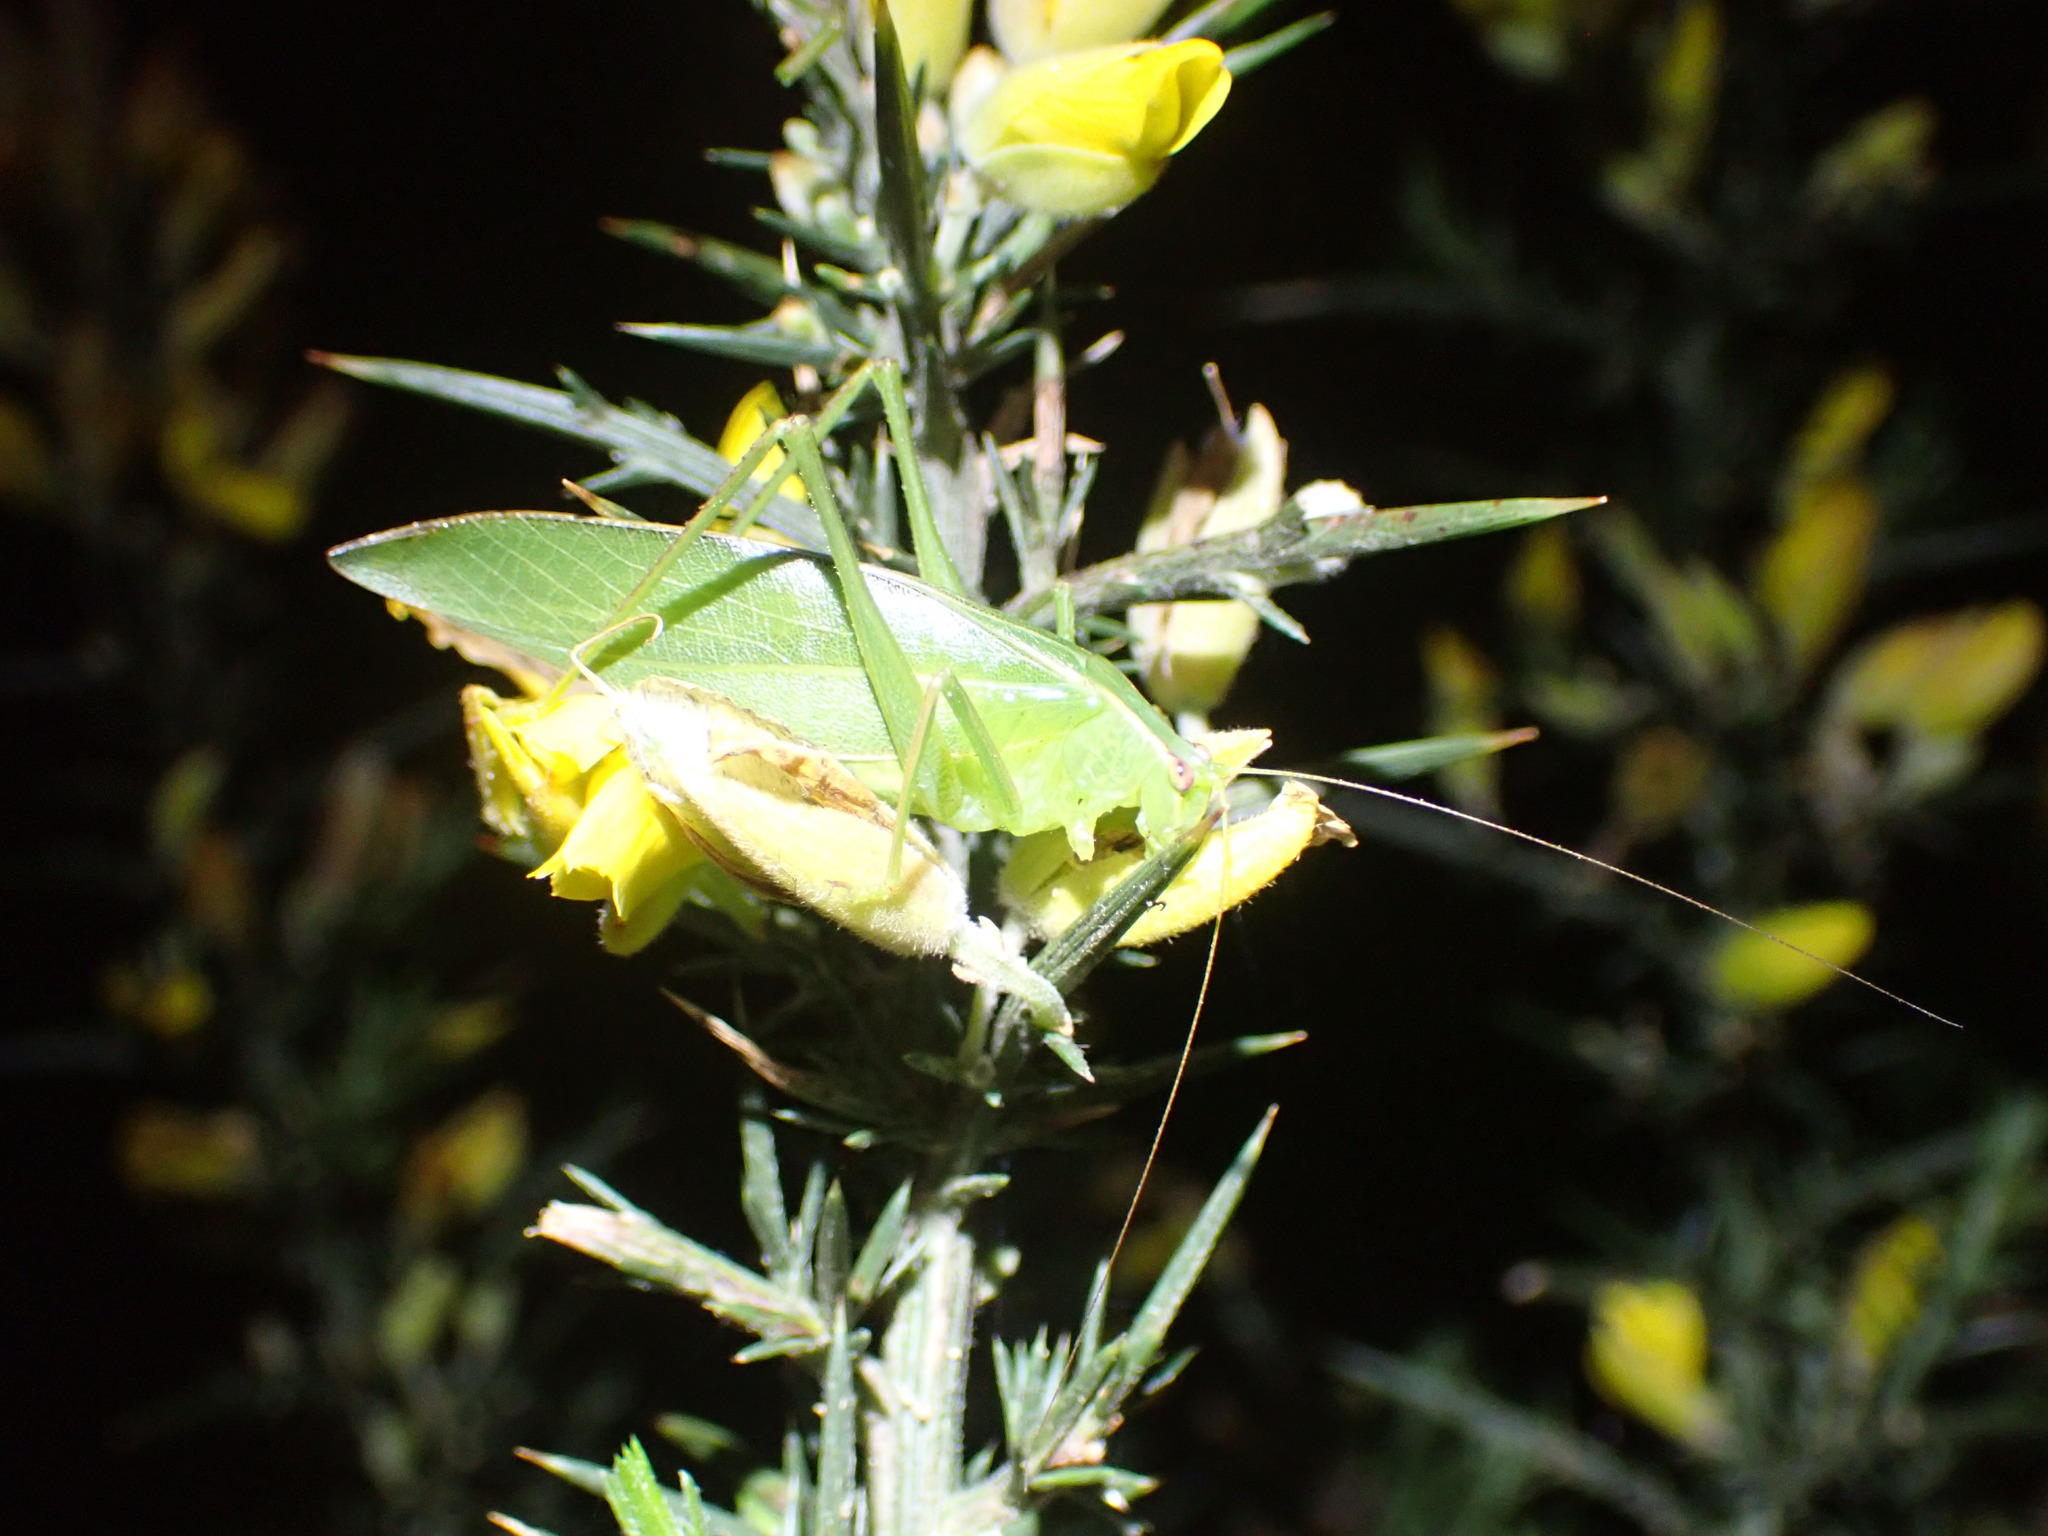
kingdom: Animalia
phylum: Arthropoda
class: Insecta
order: Orthoptera
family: Tettigoniidae
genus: Caedicia
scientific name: Caedicia simplex
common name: Common garden katydid
